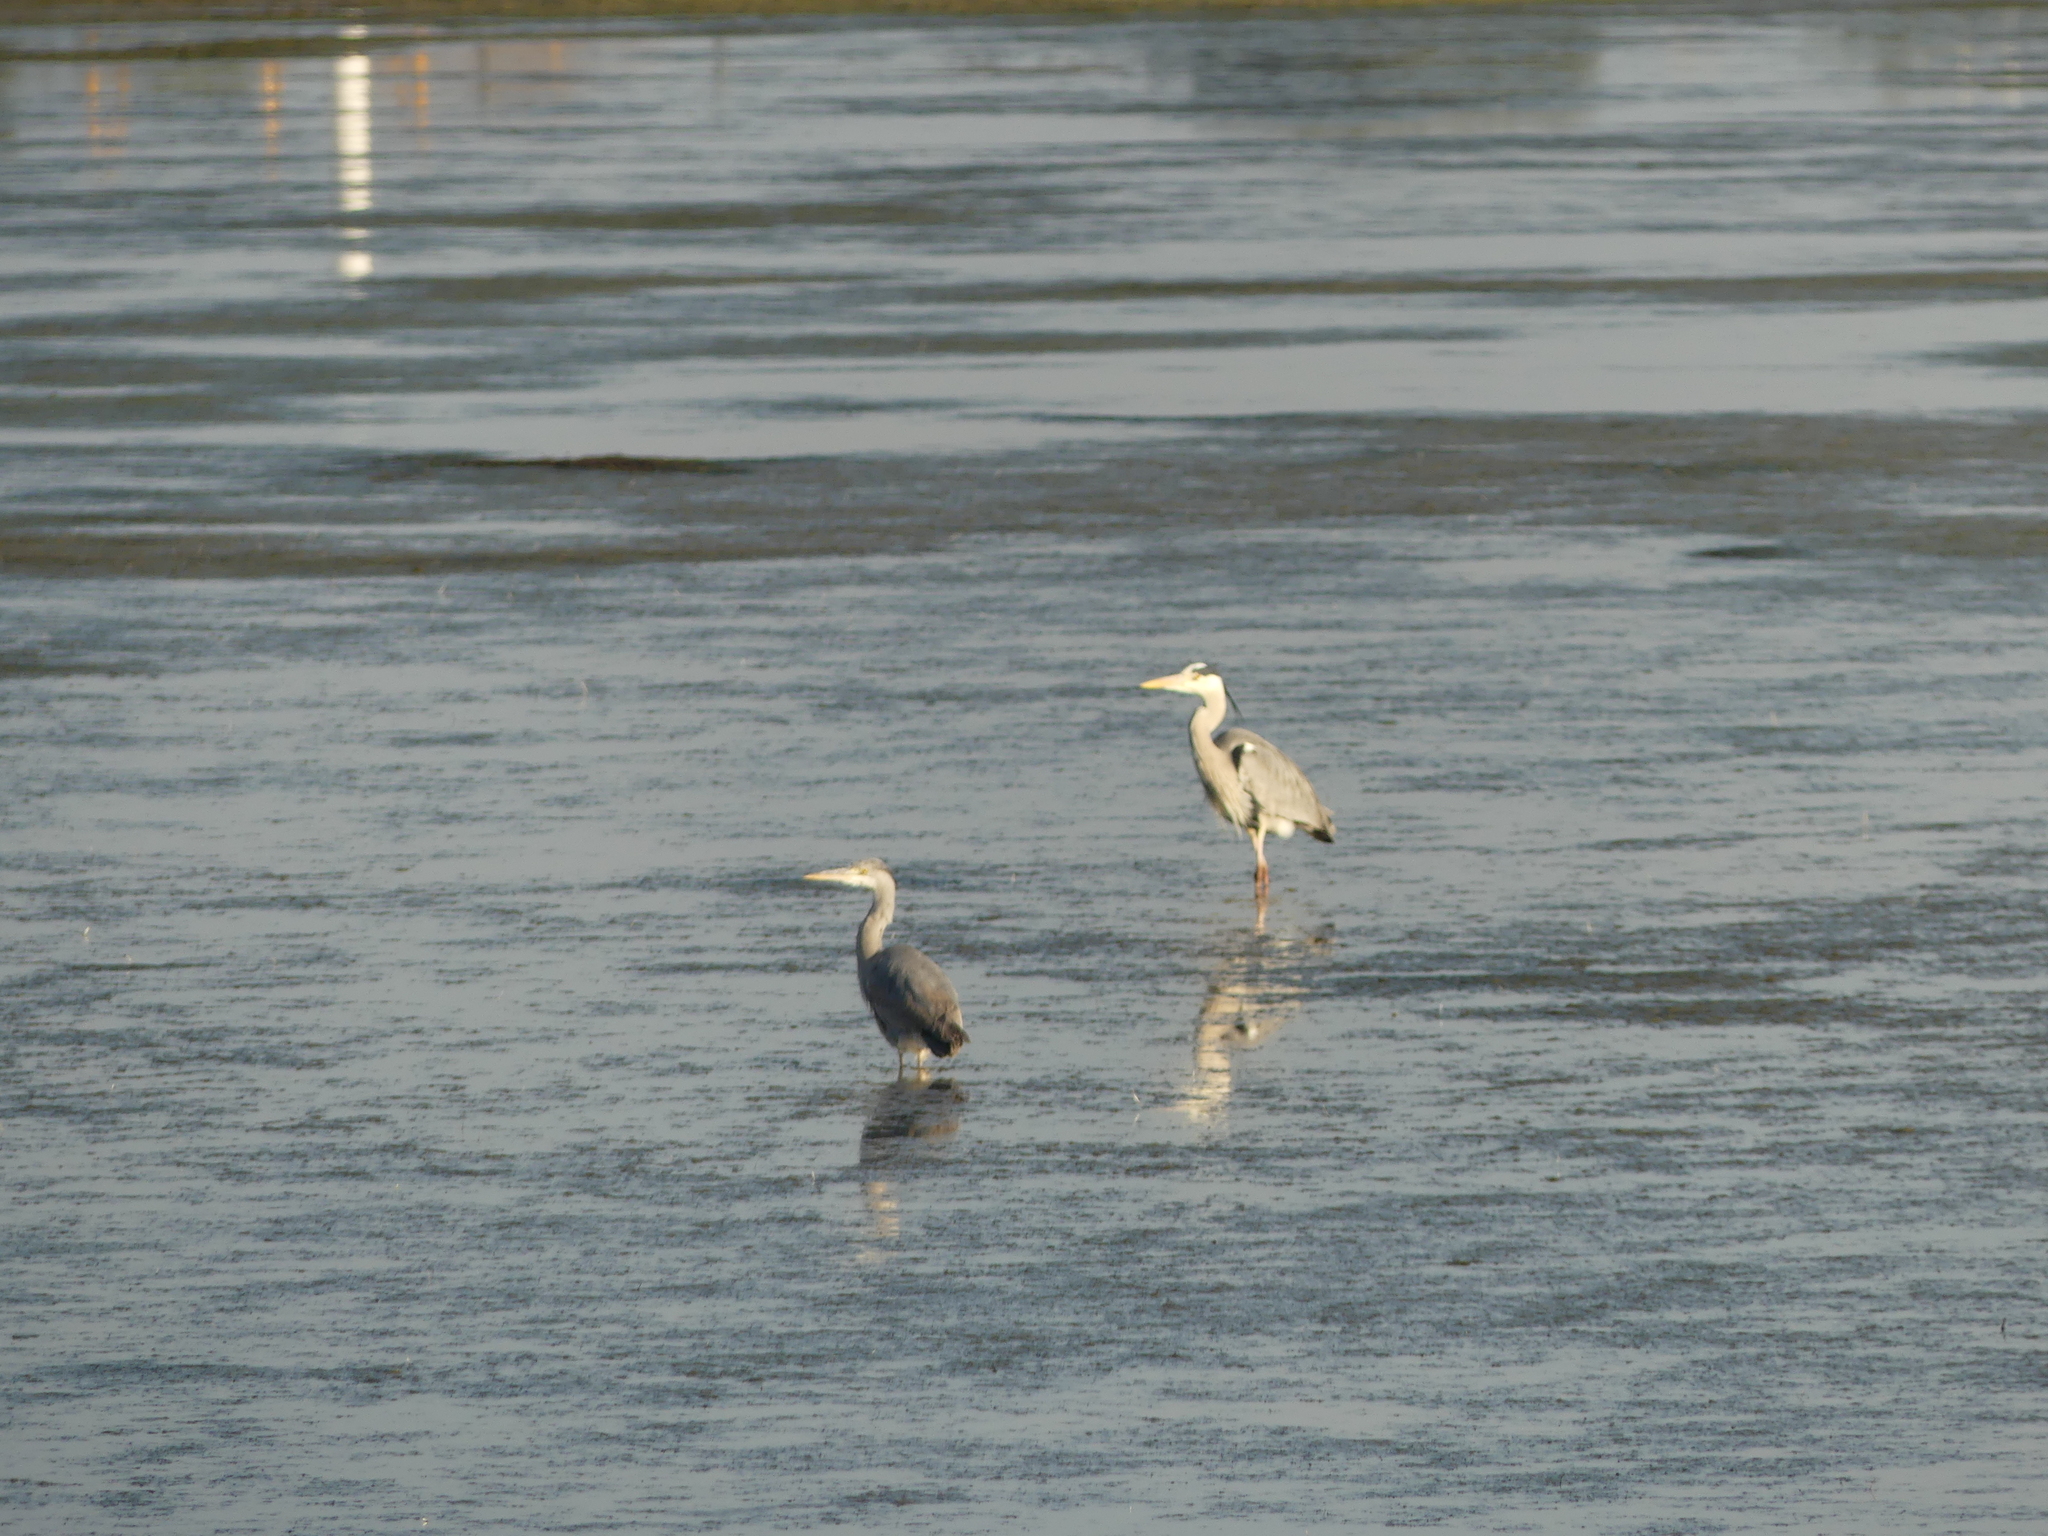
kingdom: Animalia
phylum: Chordata
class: Aves
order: Pelecaniformes
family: Ardeidae
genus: Ardea
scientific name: Ardea cinerea
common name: Grey heron
